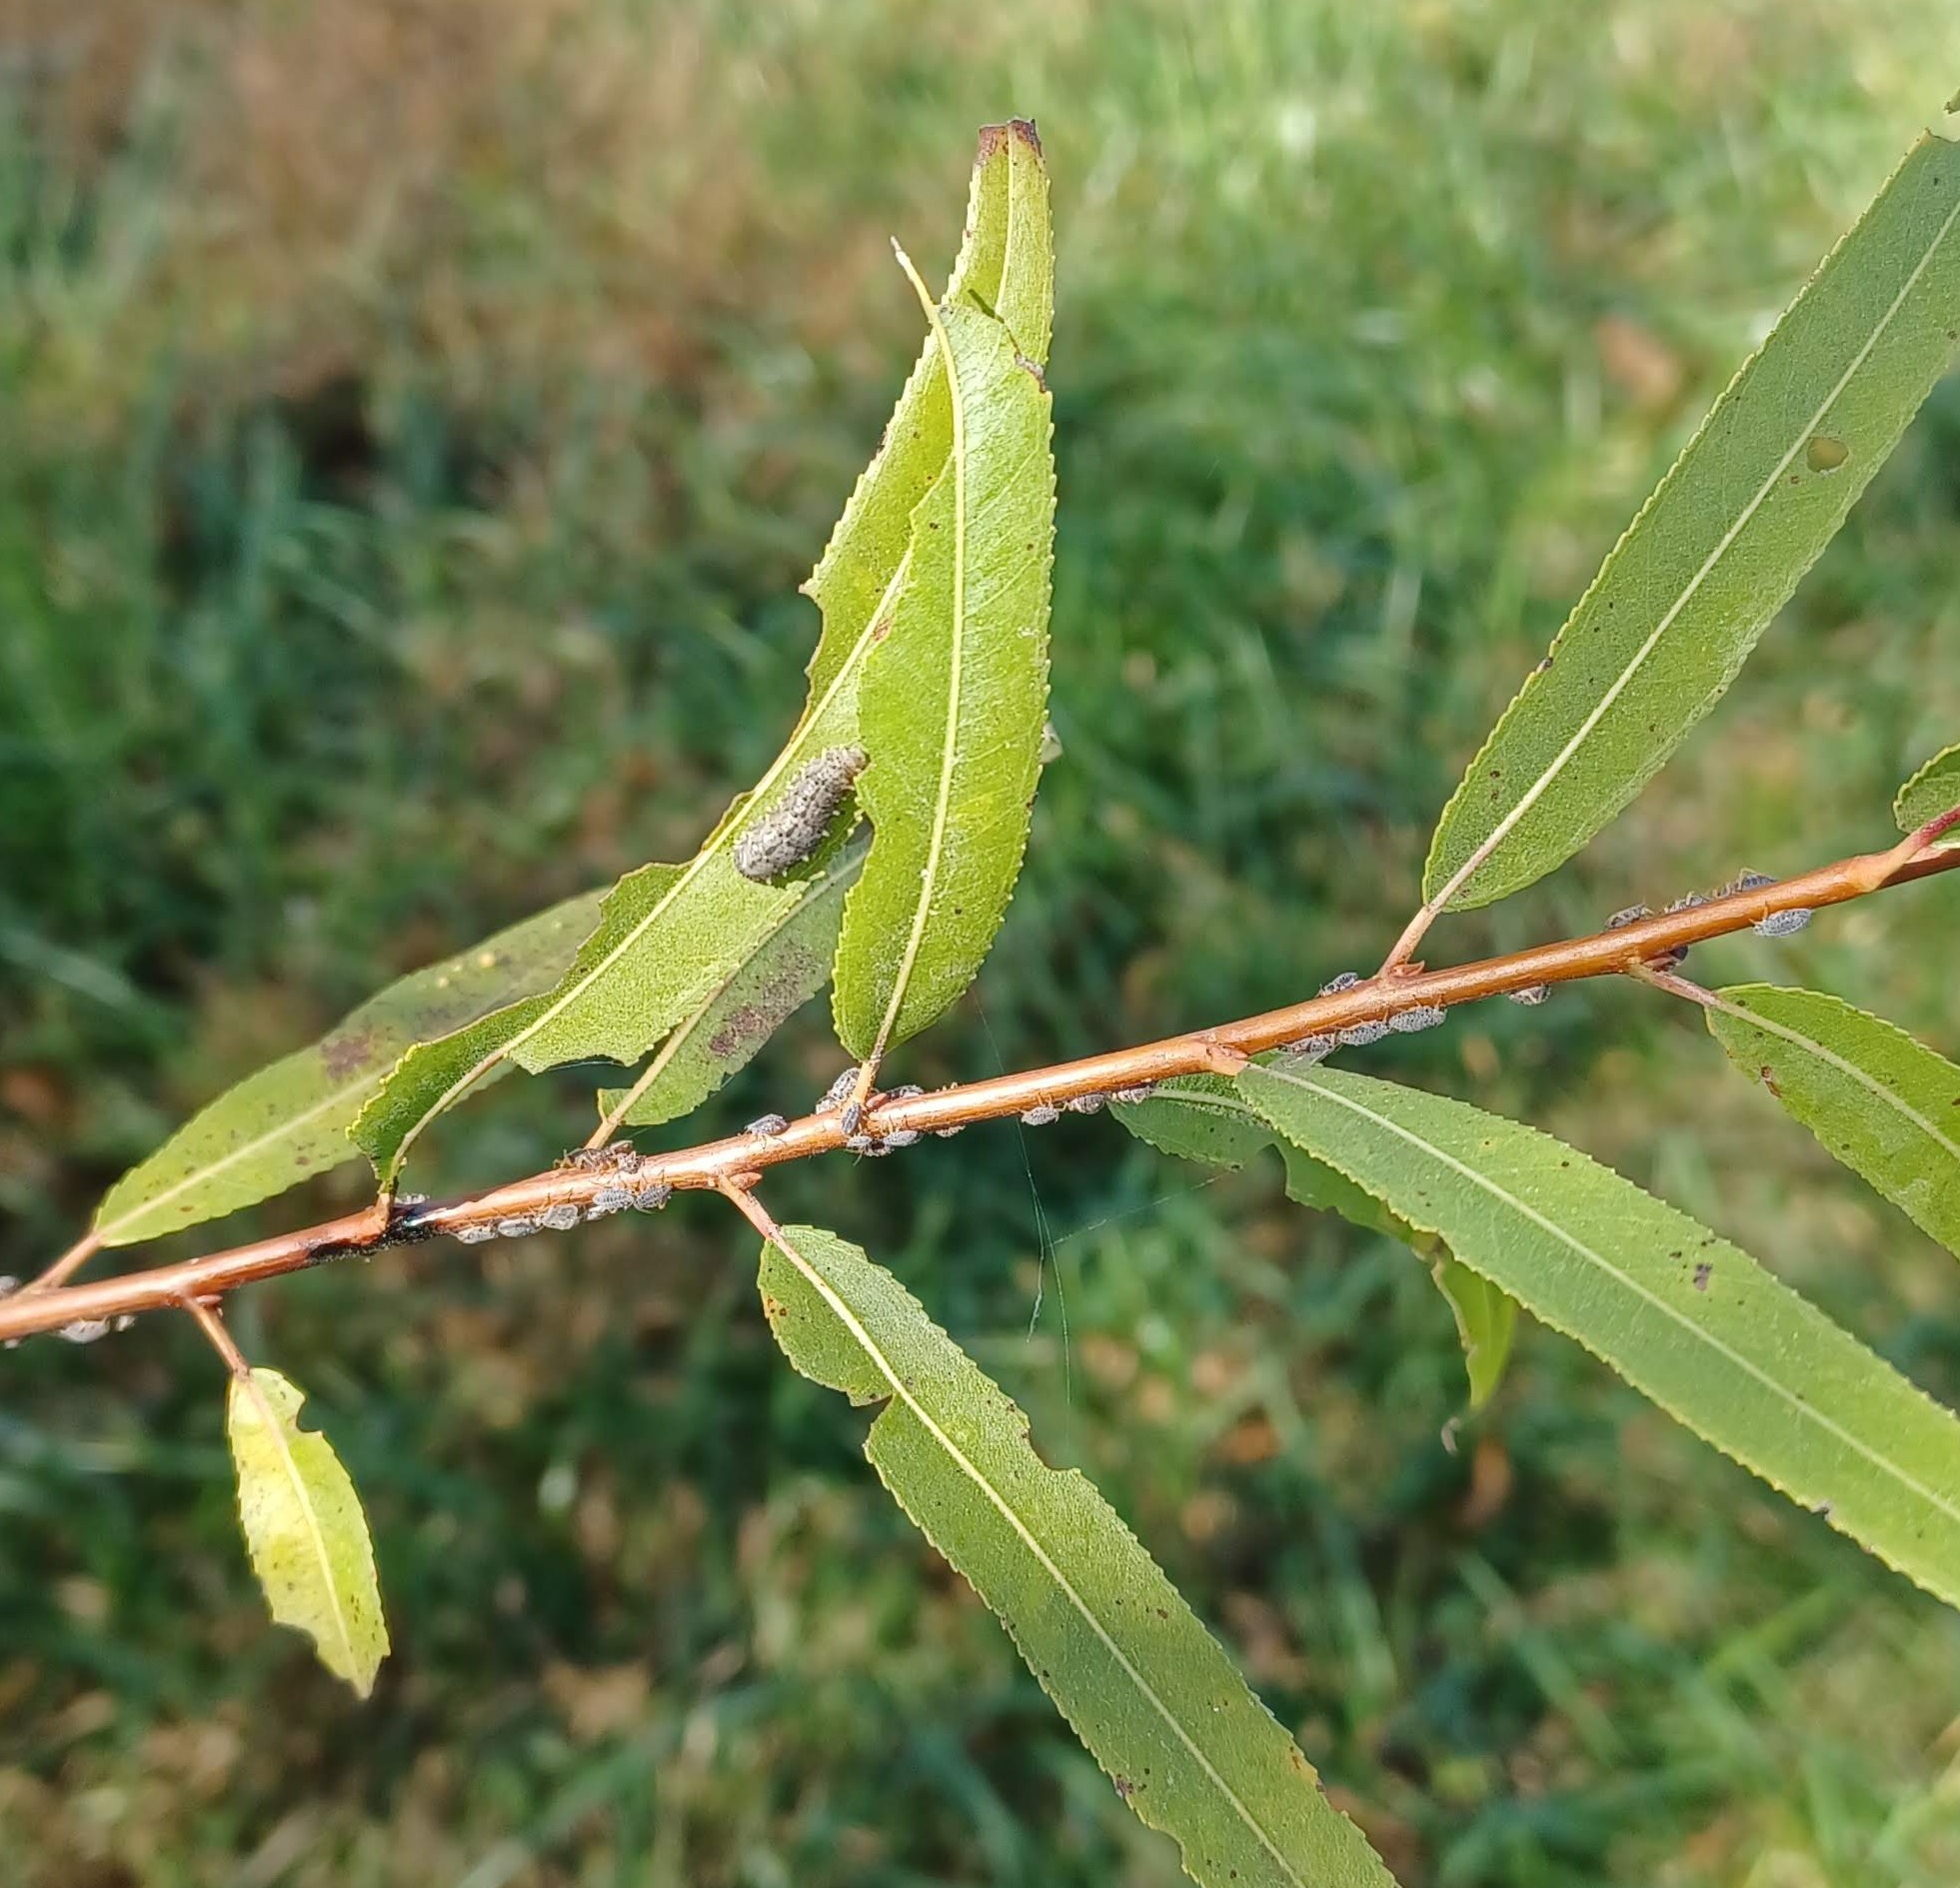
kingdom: Animalia
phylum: Arthropoda
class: Insecta
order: Diptera
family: Syrphidae
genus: Didea
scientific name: Didea fuscipes
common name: Undivided lucent
